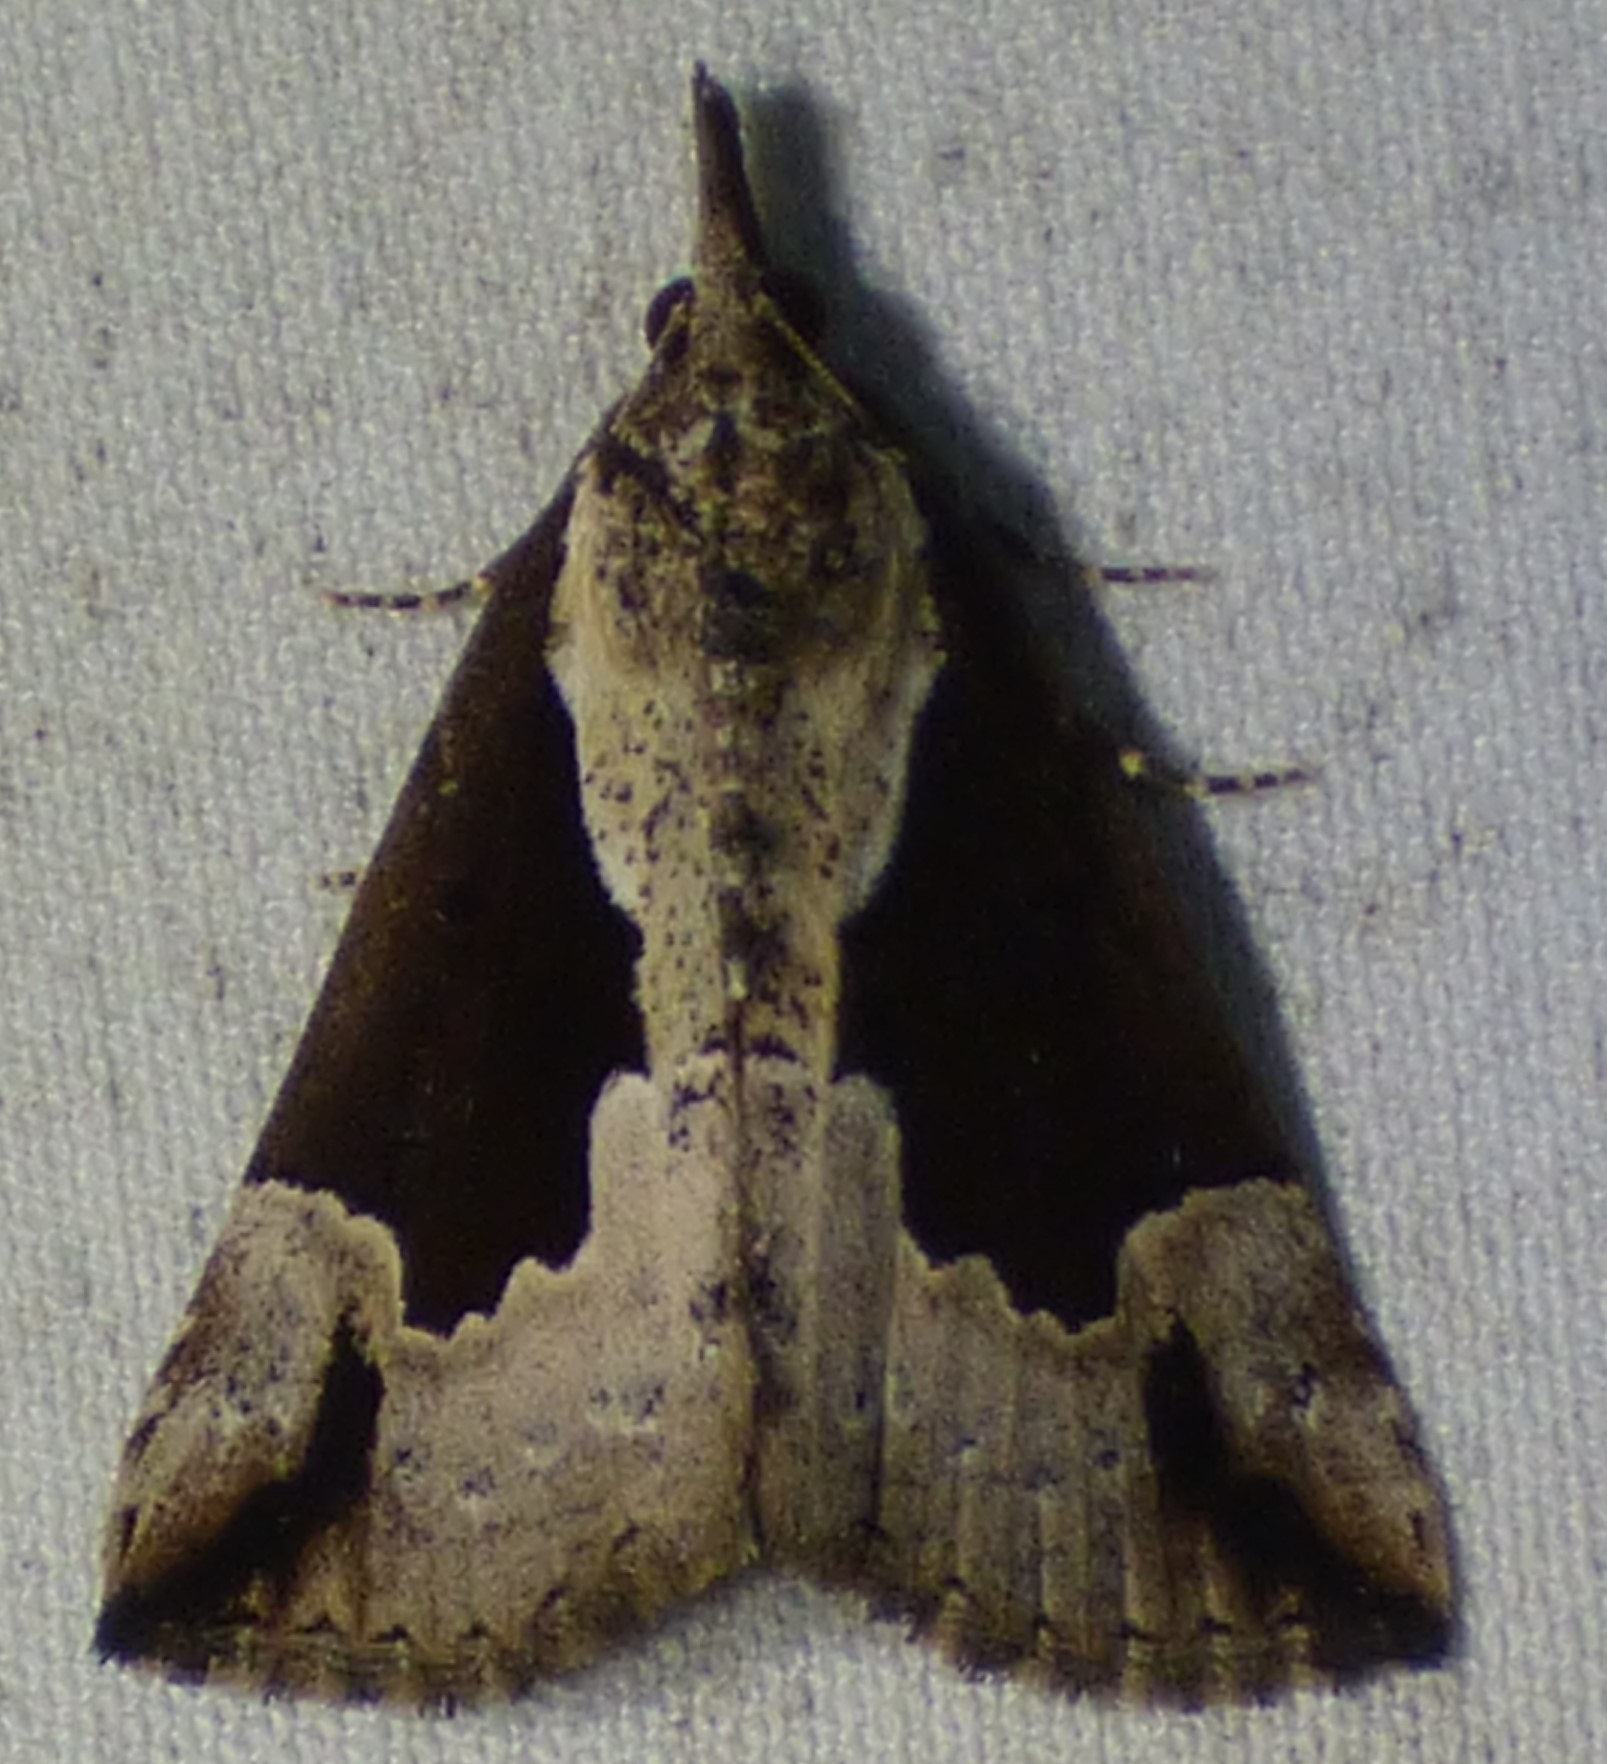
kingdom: Animalia
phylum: Arthropoda
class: Insecta
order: Lepidoptera
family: Erebidae
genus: Hypena
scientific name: Hypena baltimoralis
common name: Baltimore snout
